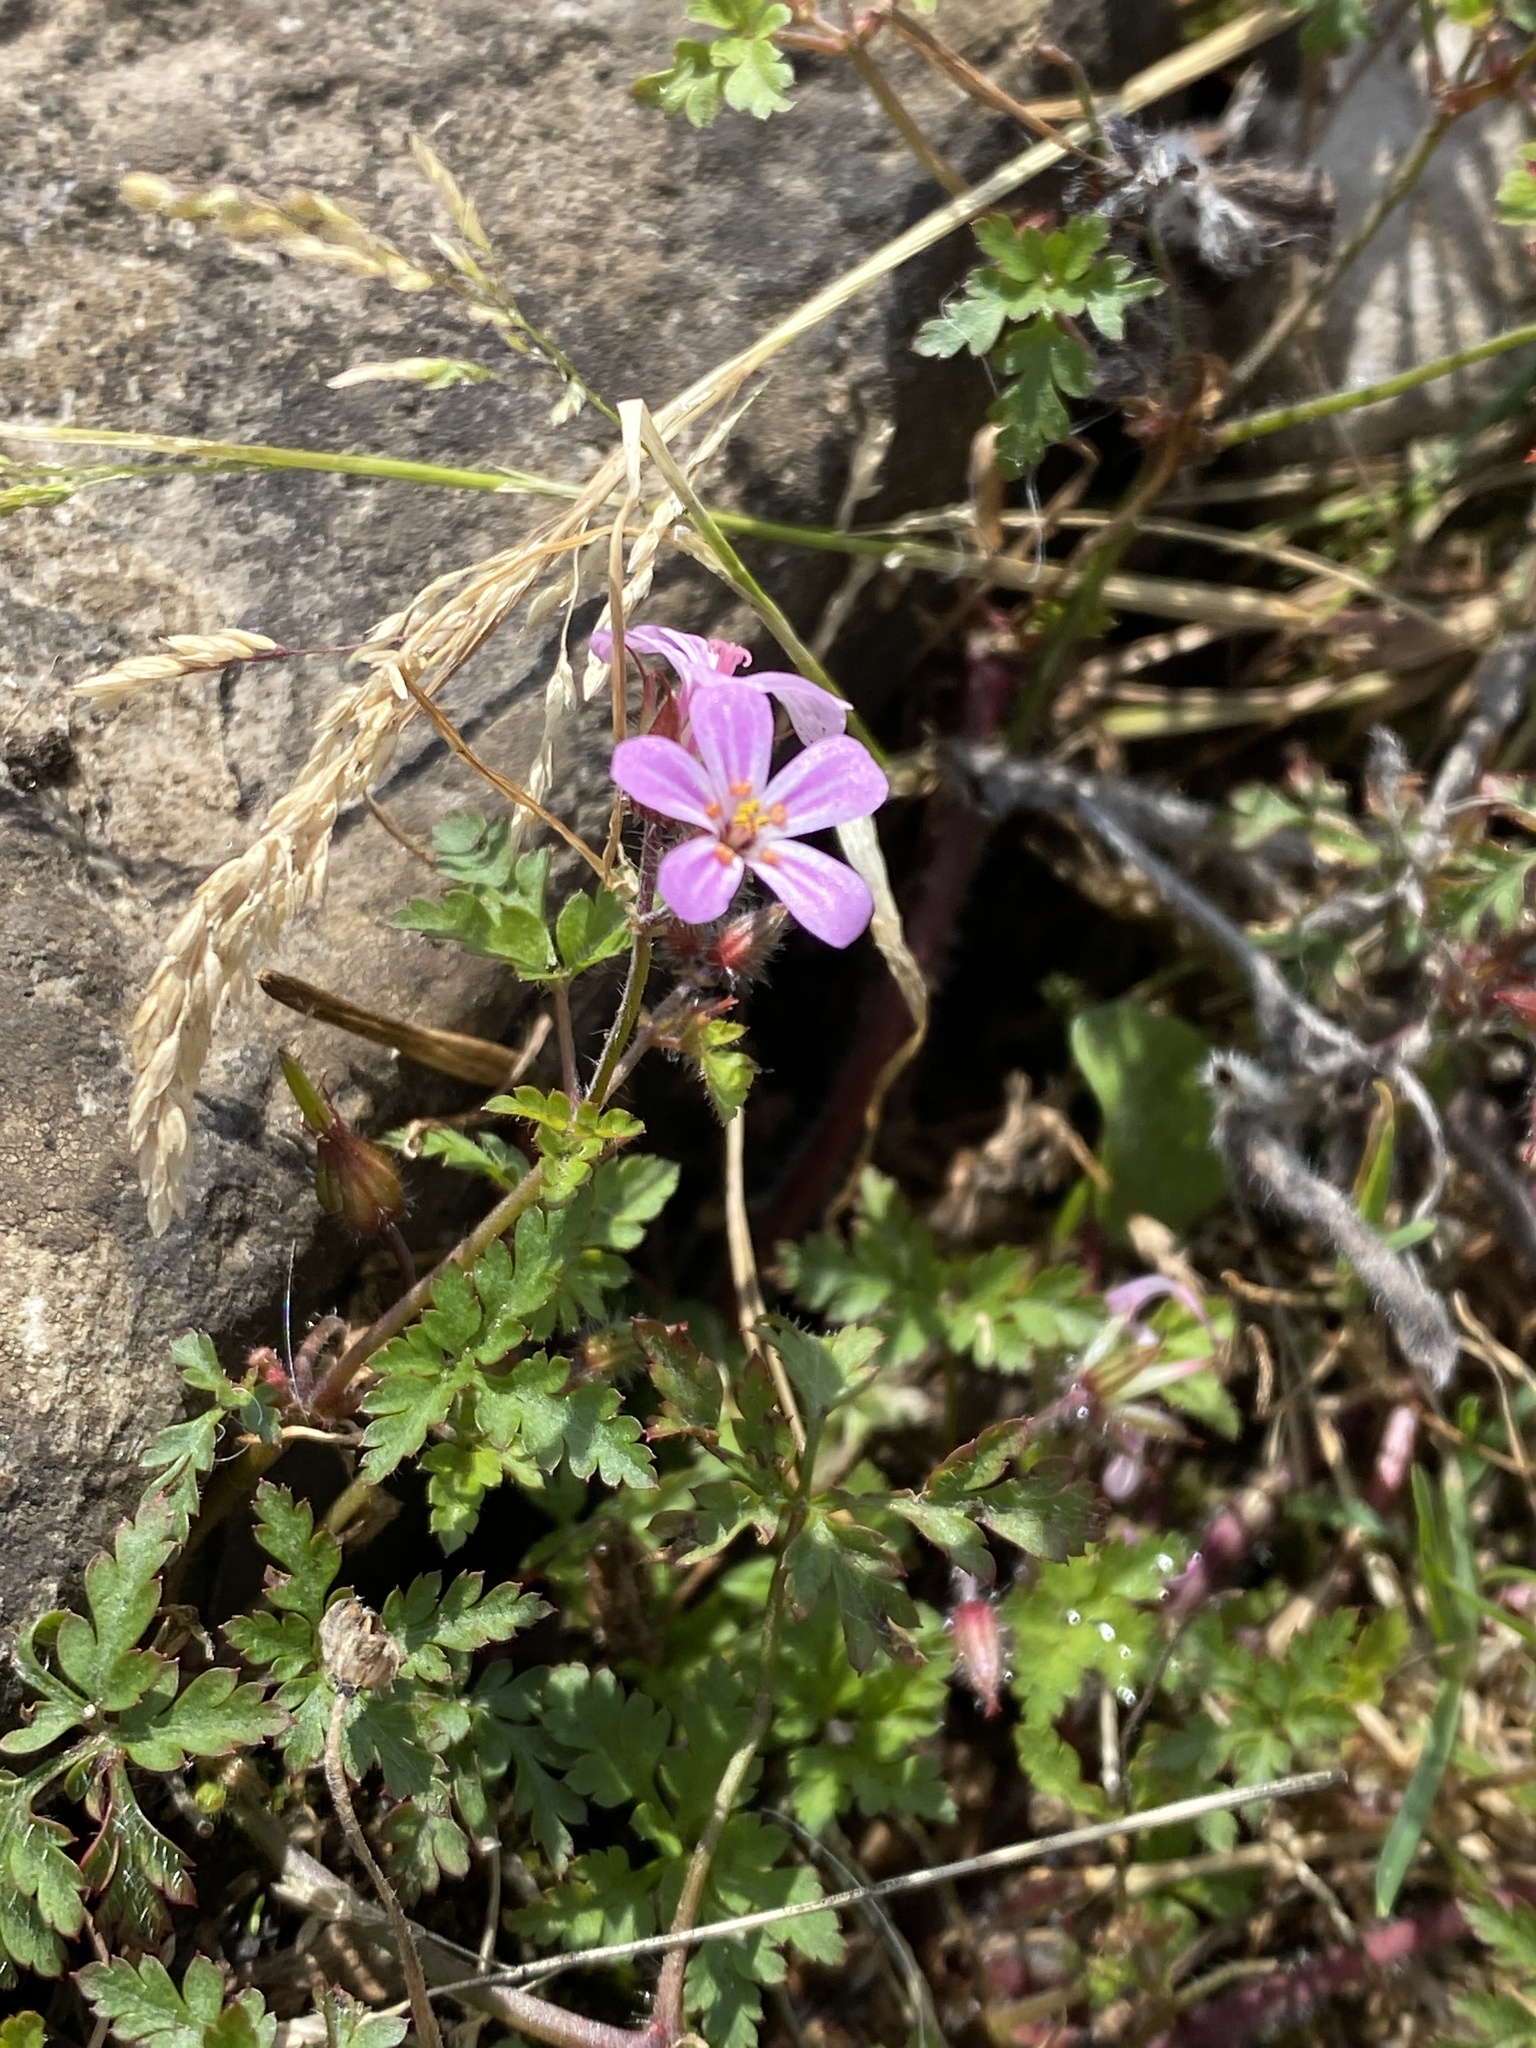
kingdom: Plantae
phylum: Tracheophyta
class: Magnoliopsida
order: Geraniales
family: Geraniaceae
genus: Geranium
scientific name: Geranium robertianum
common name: Herb-robert
